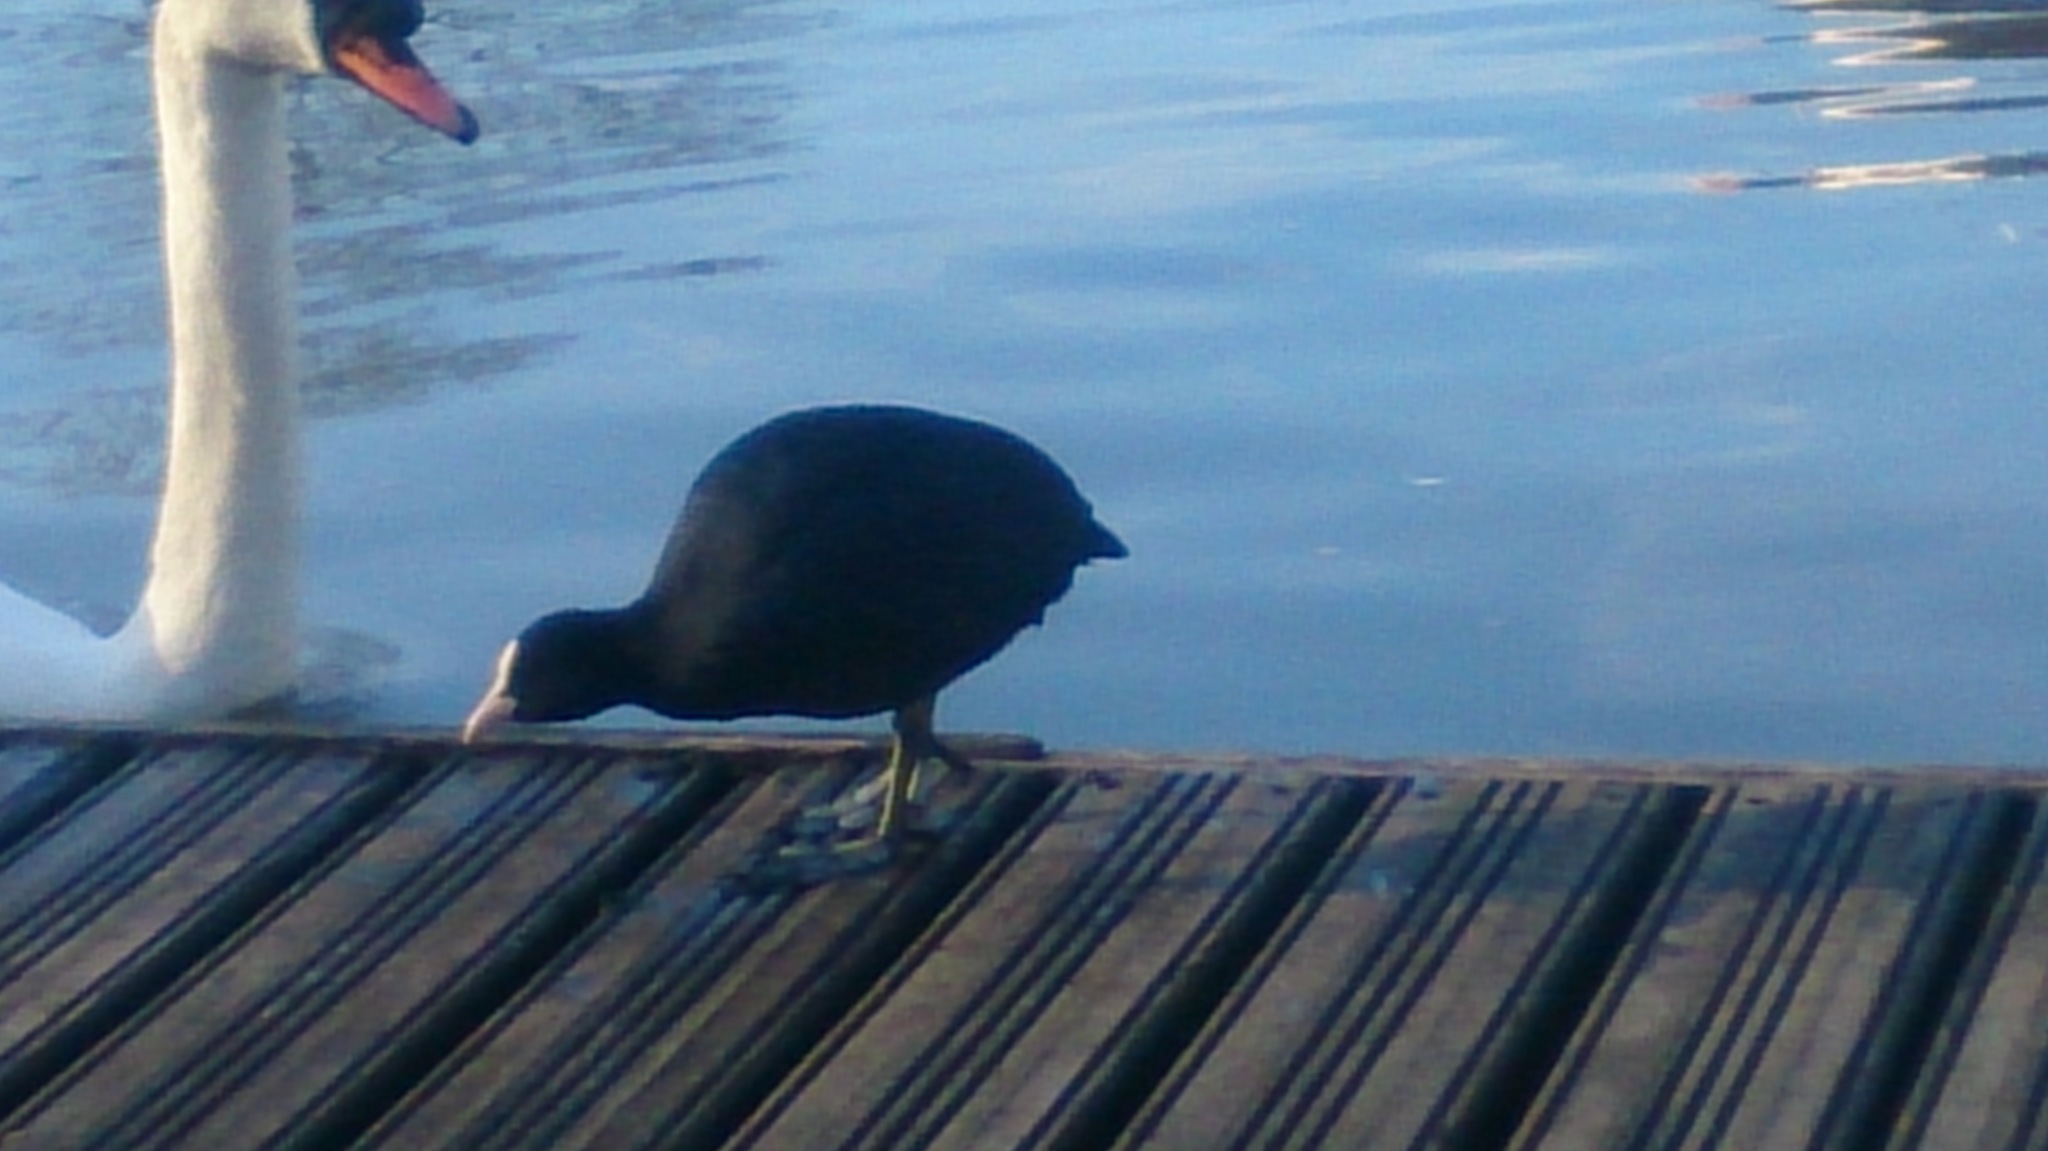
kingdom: Animalia
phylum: Chordata
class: Aves
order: Gruiformes
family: Rallidae
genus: Fulica
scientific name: Fulica atra
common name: Eurasian coot
